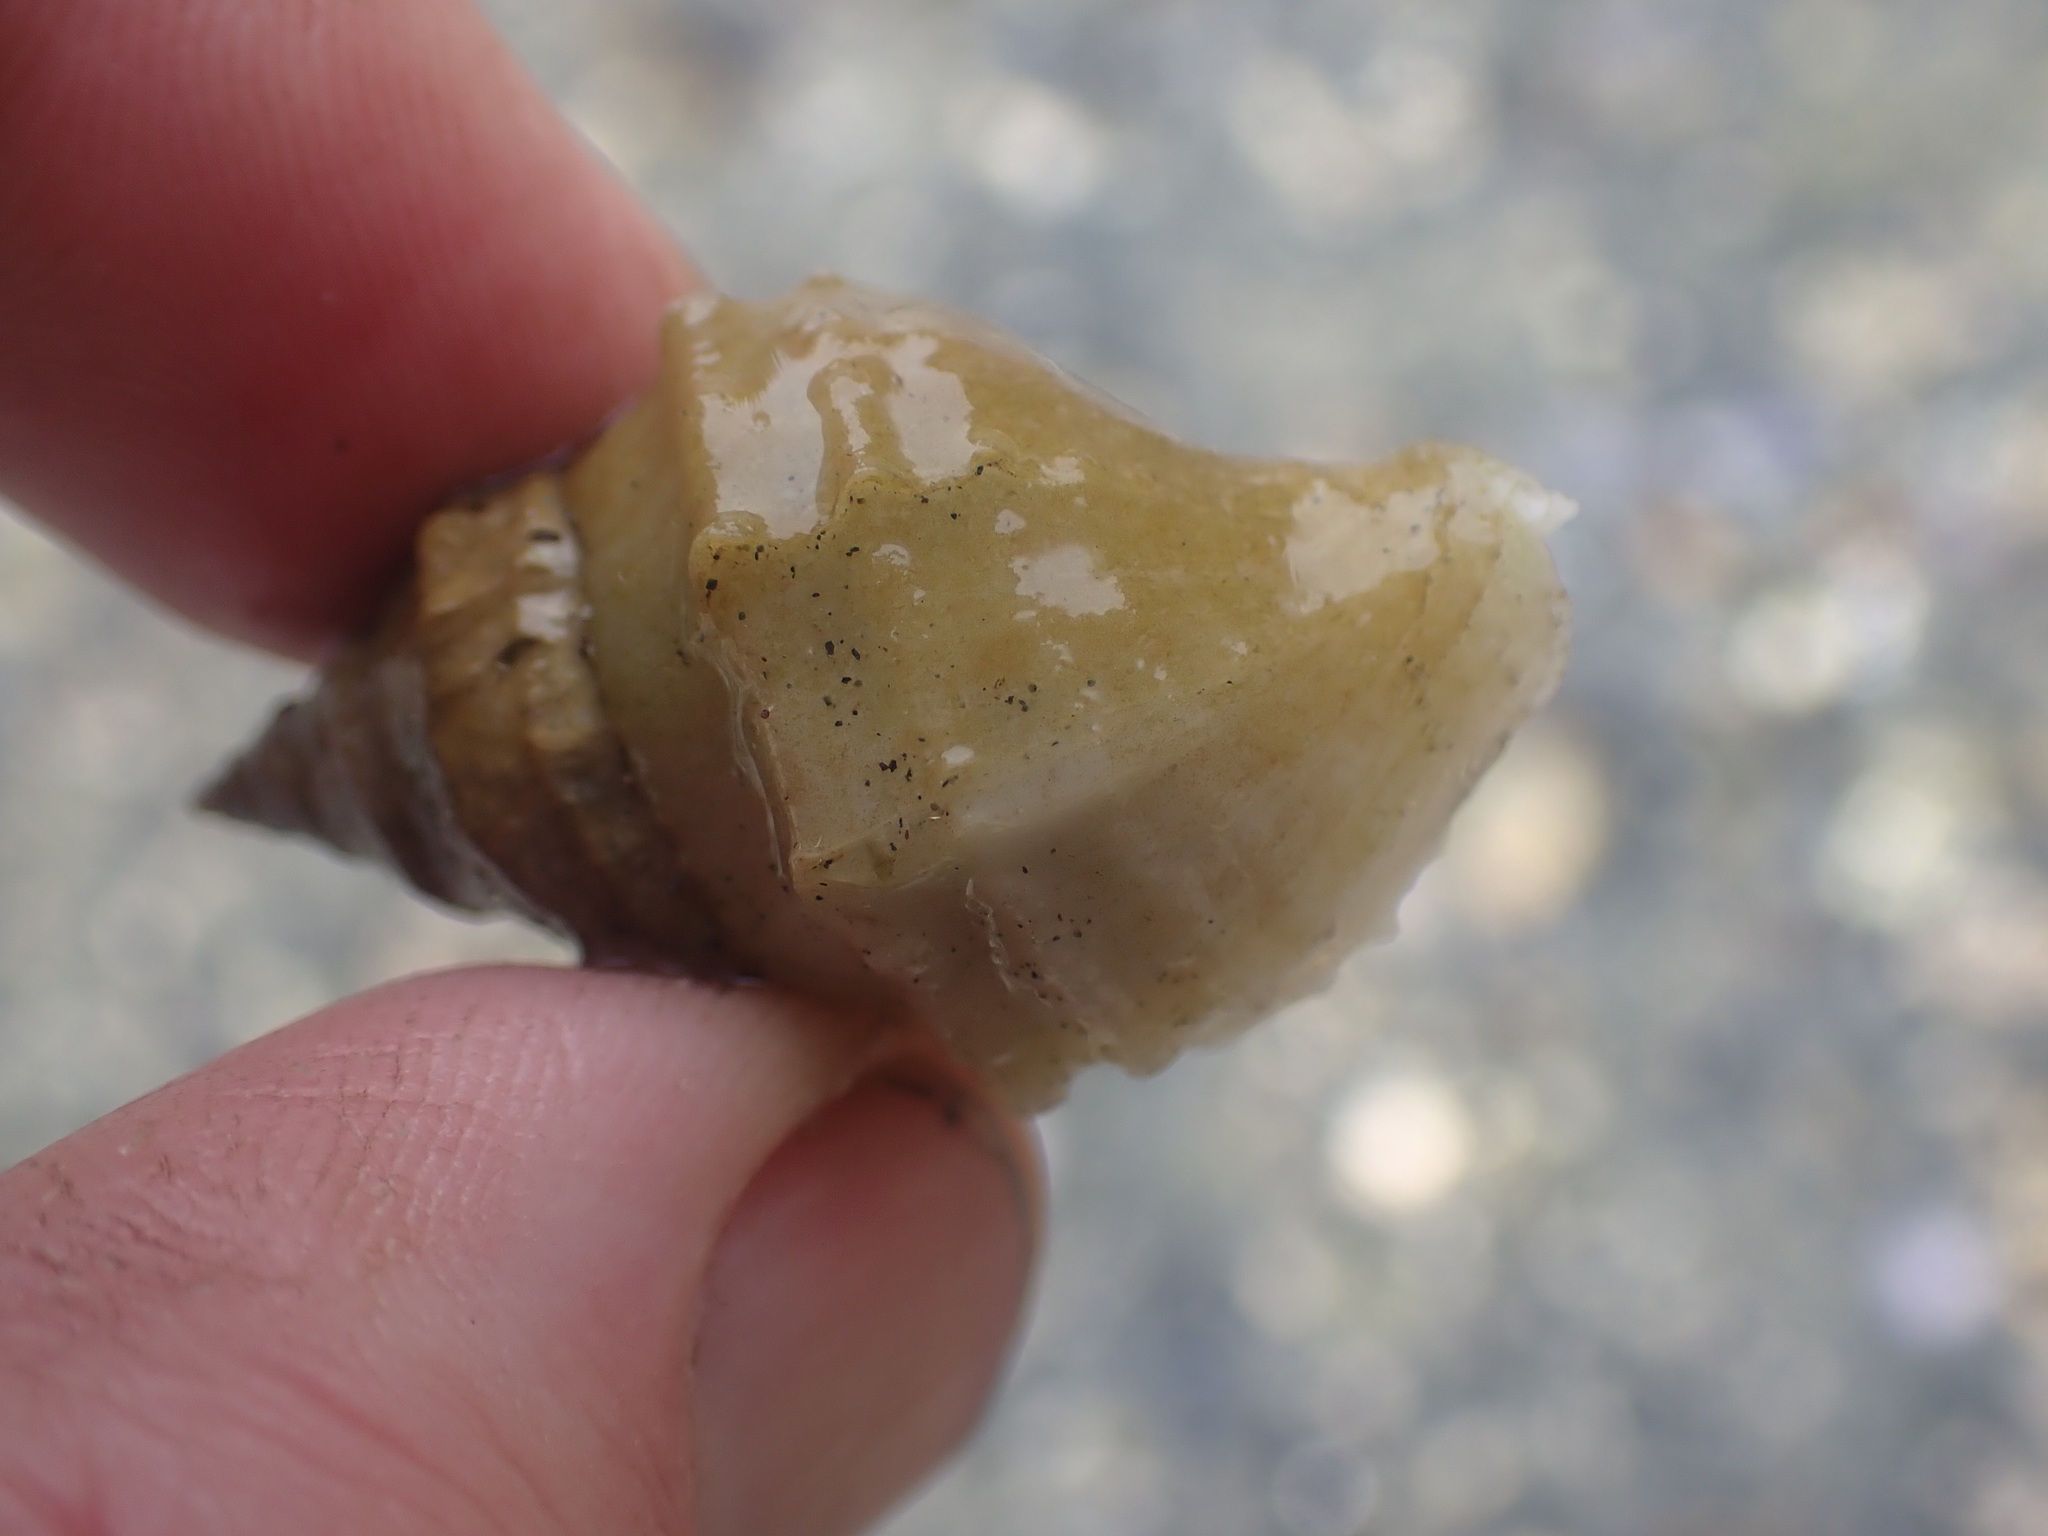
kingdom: Animalia
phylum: Mollusca
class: Gastropoda
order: Neogastropoda
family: Muricidae
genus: Nucella
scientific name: Nucella lamellosa
